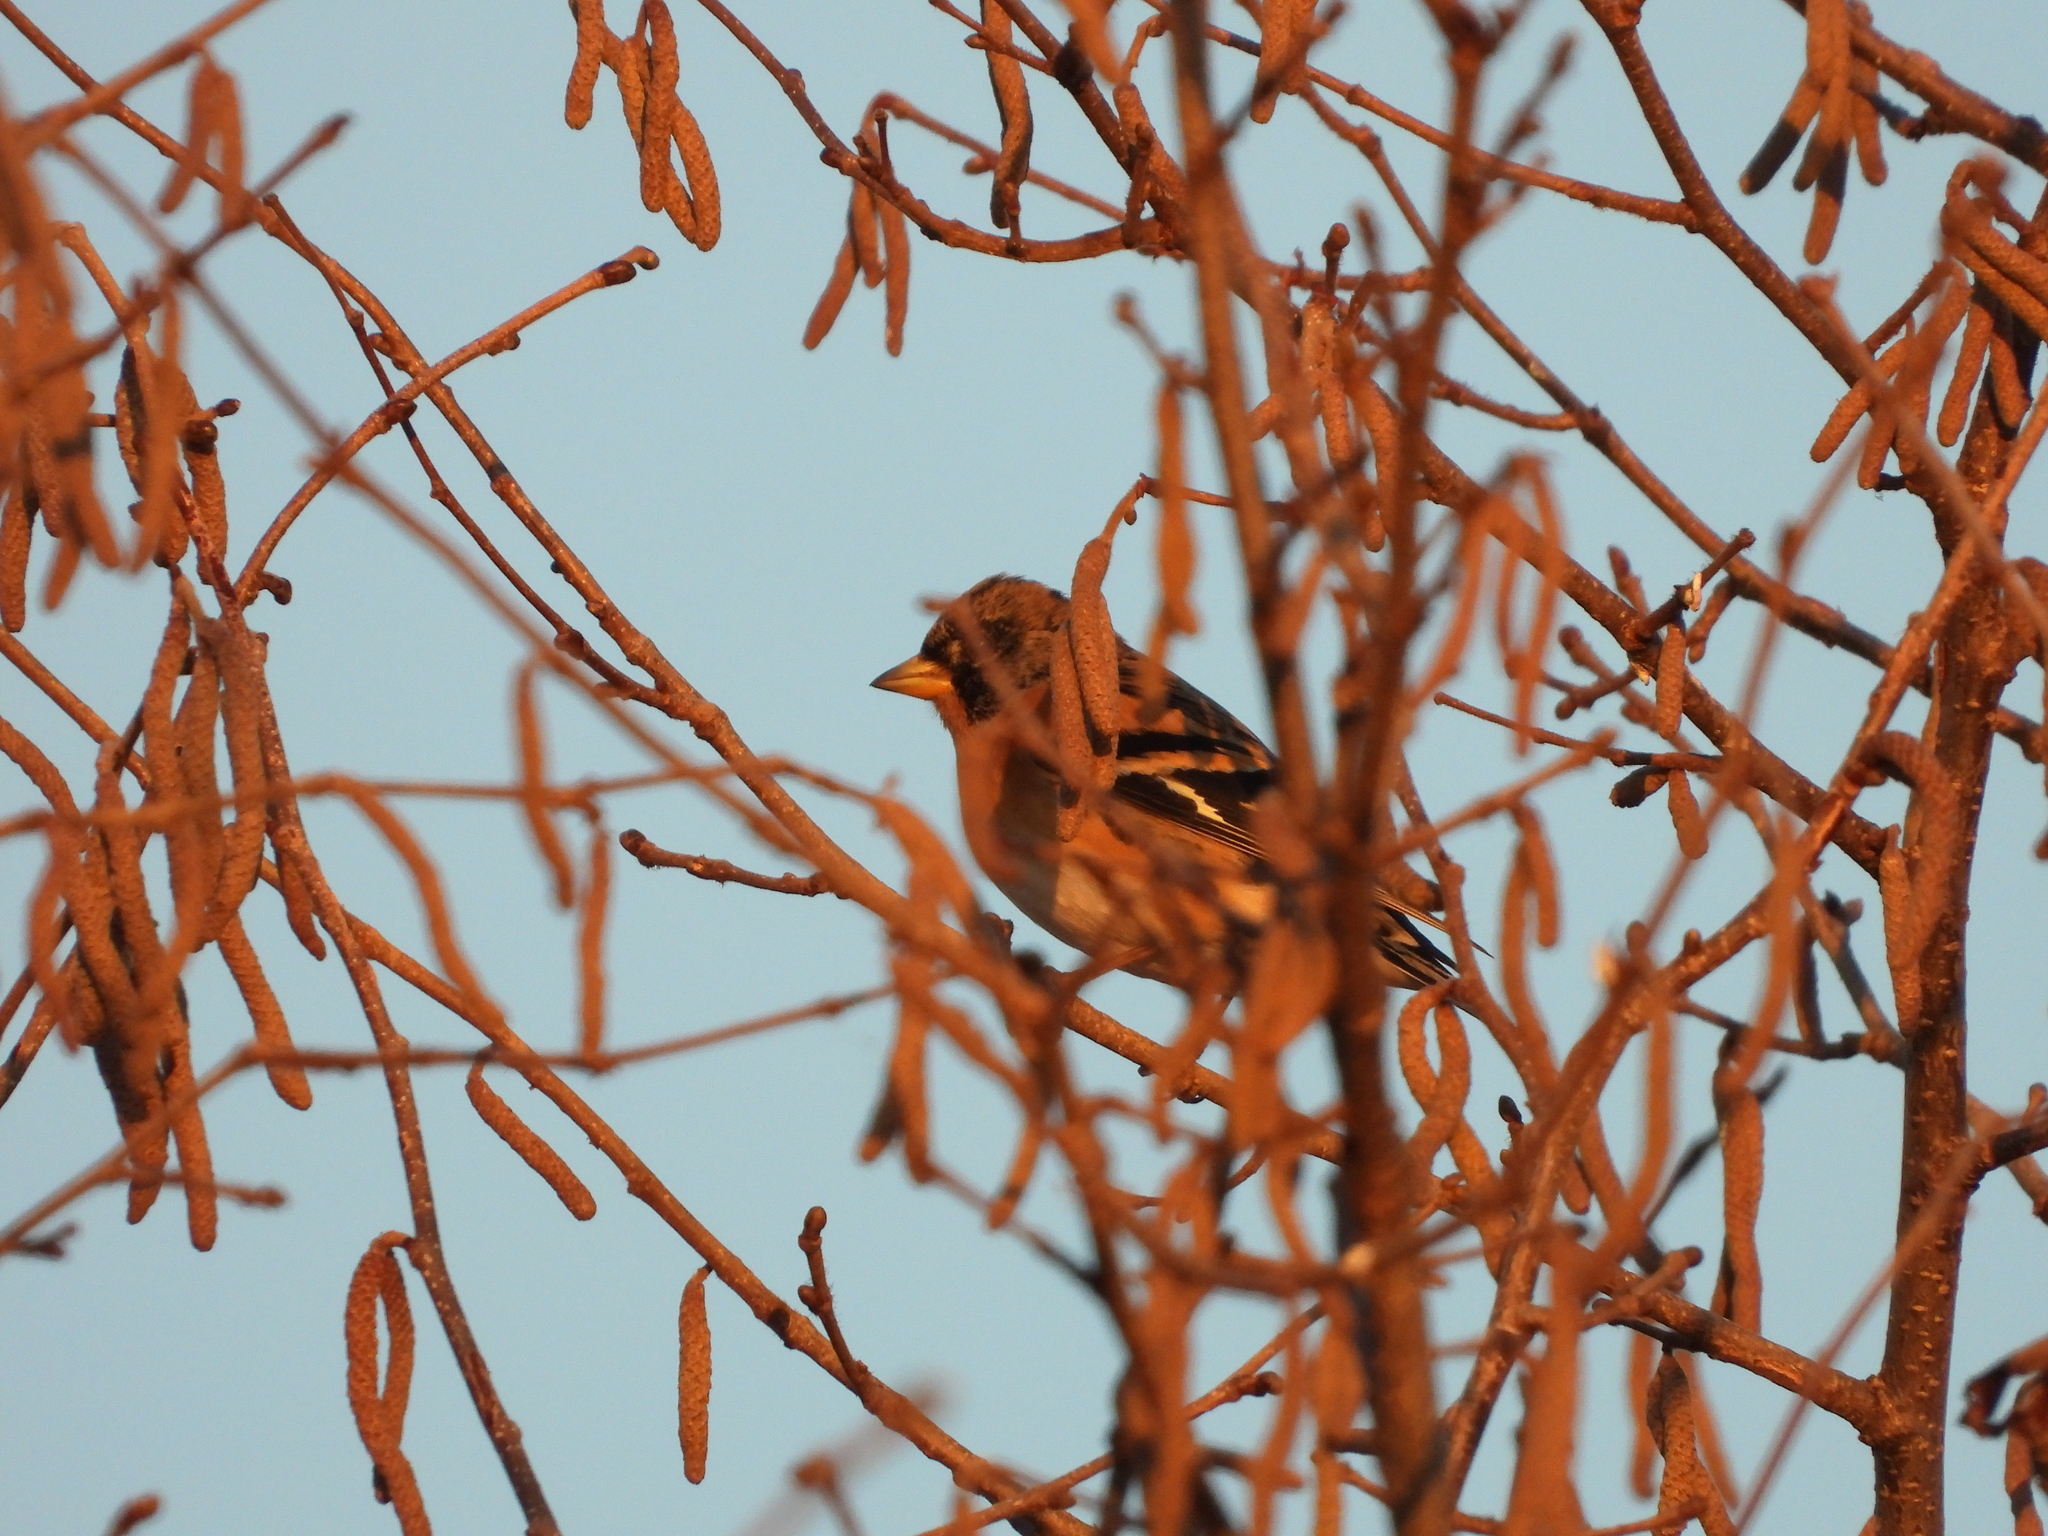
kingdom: Animalia
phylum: Chordata
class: Aves
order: Passeriformes
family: Fringillidae
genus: Fringilla
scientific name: Fringilla montifringilla
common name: Brambling
